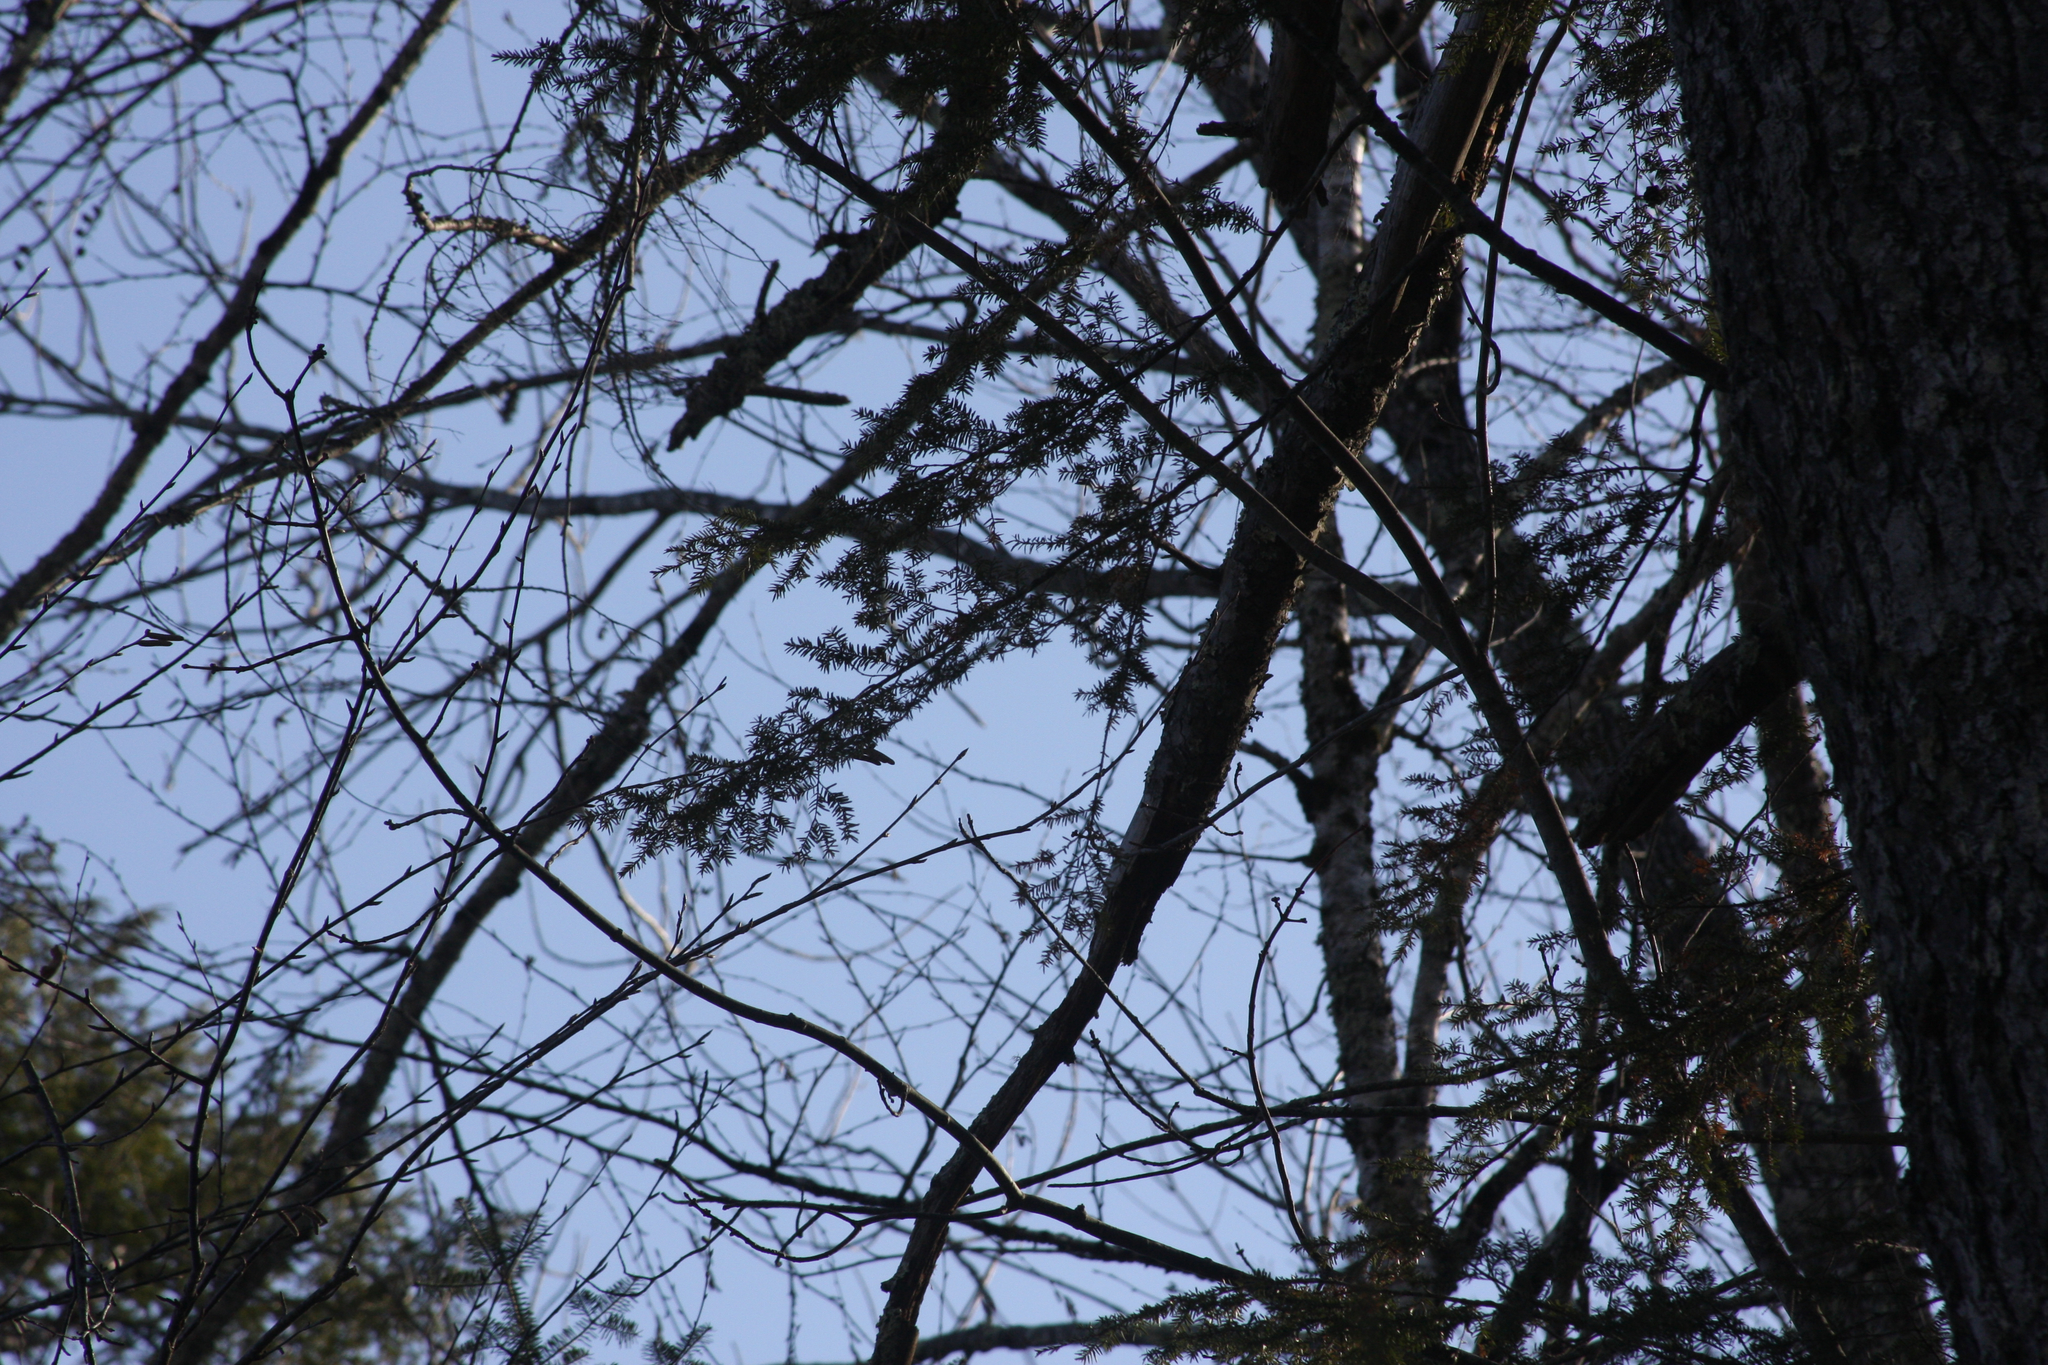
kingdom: Plantae
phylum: Tracheophyta
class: Pinopsida
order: Pinales
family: Pinaceae
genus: Tsuga
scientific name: Tsuga canadensis
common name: Eastern hemlock
